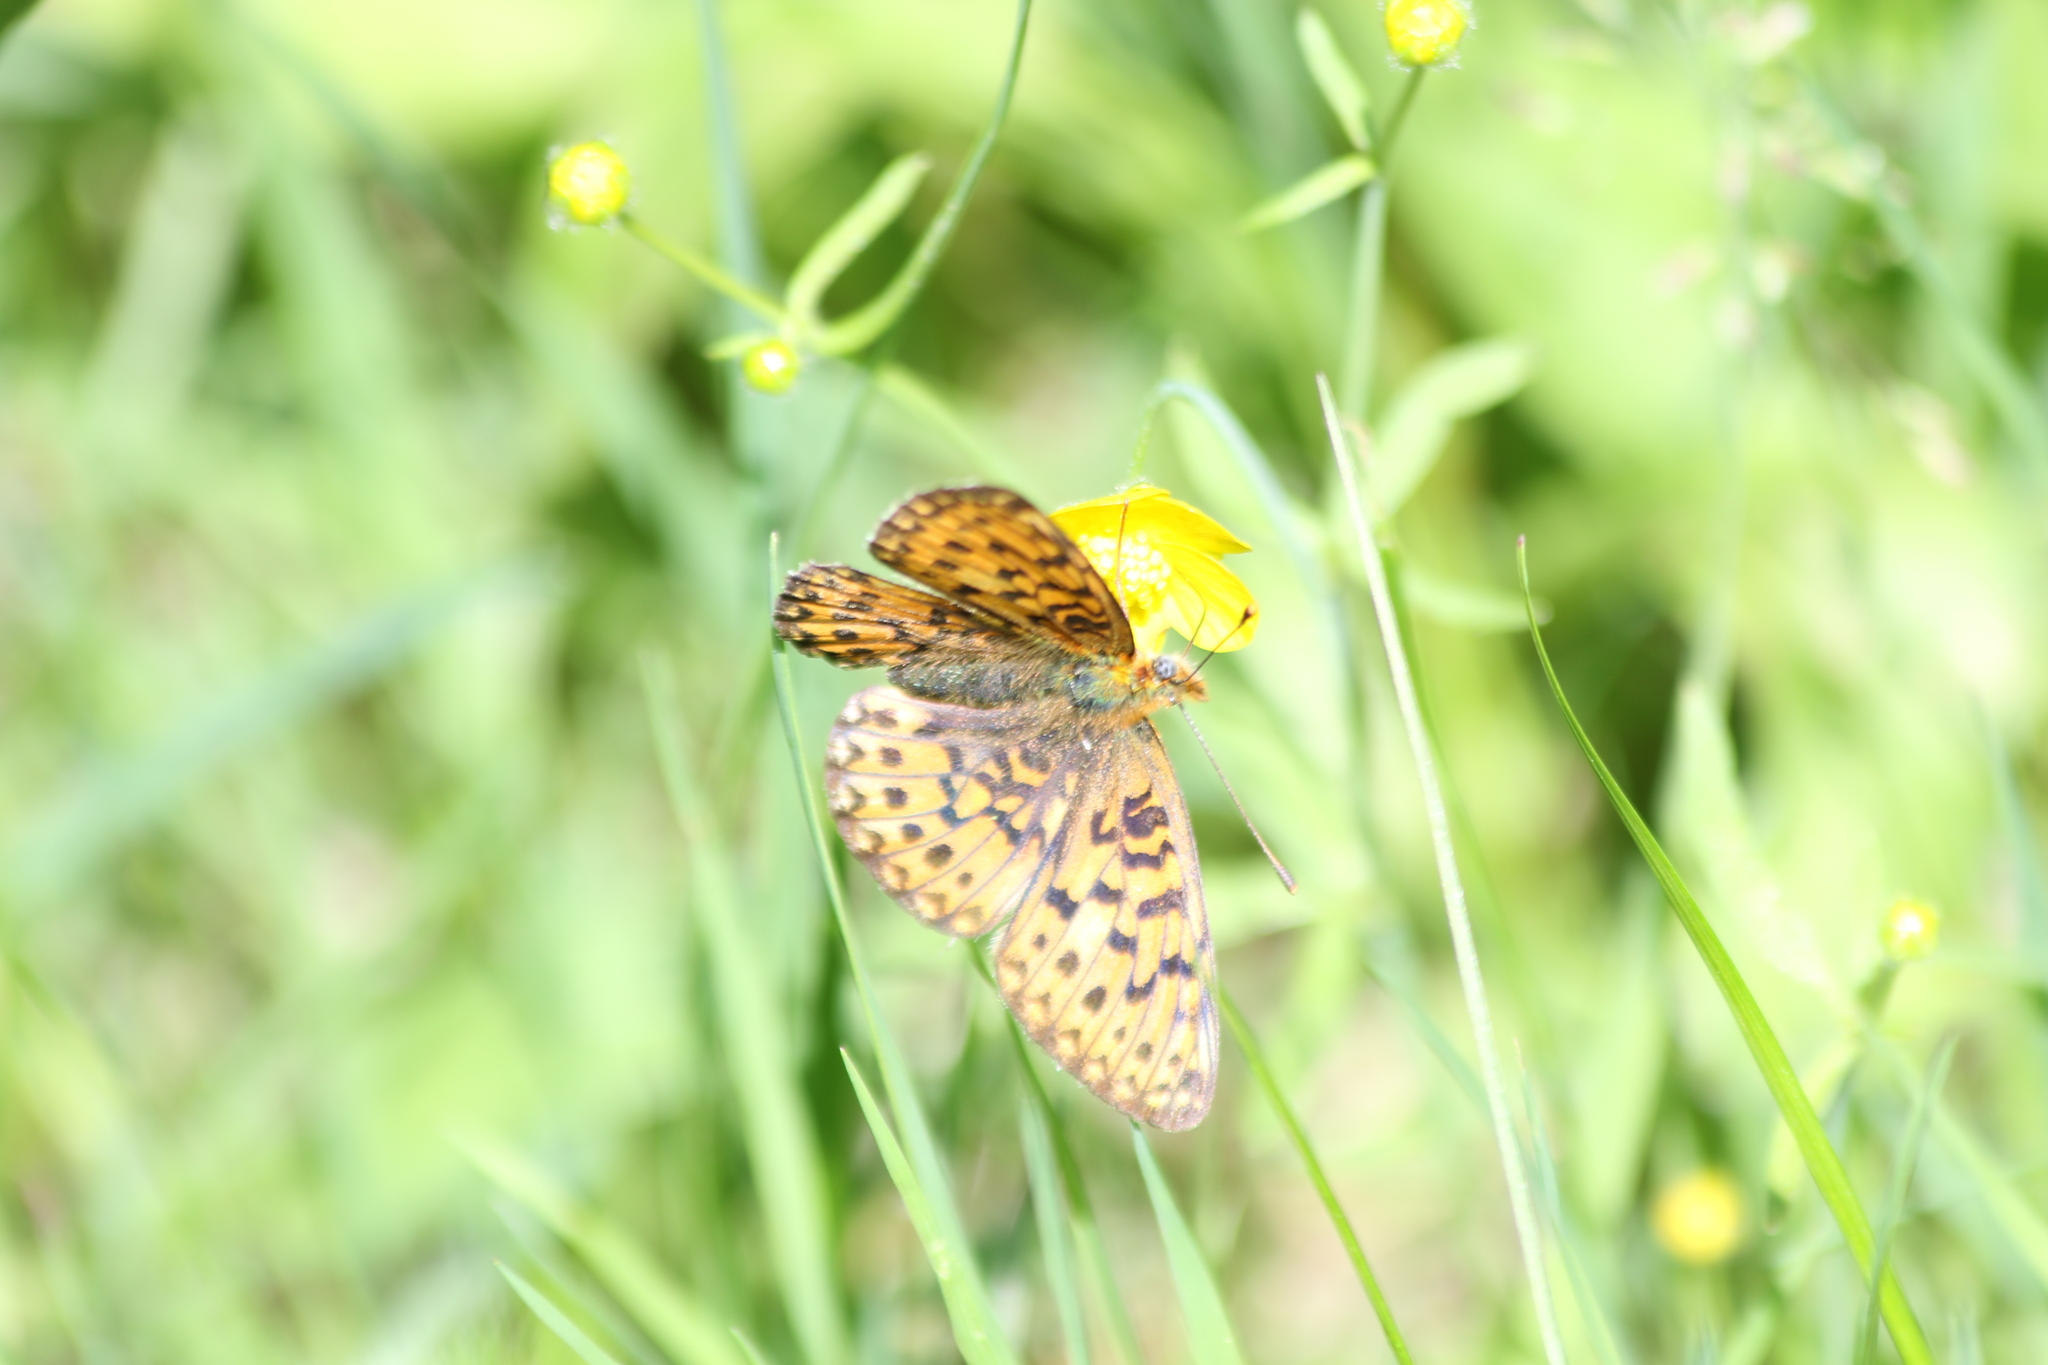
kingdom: Animalia
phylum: Arthropoda
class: Insecta
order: Lepidoptera
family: Nymphalidae
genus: Clossiana
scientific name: Clossiana euphrosyne
